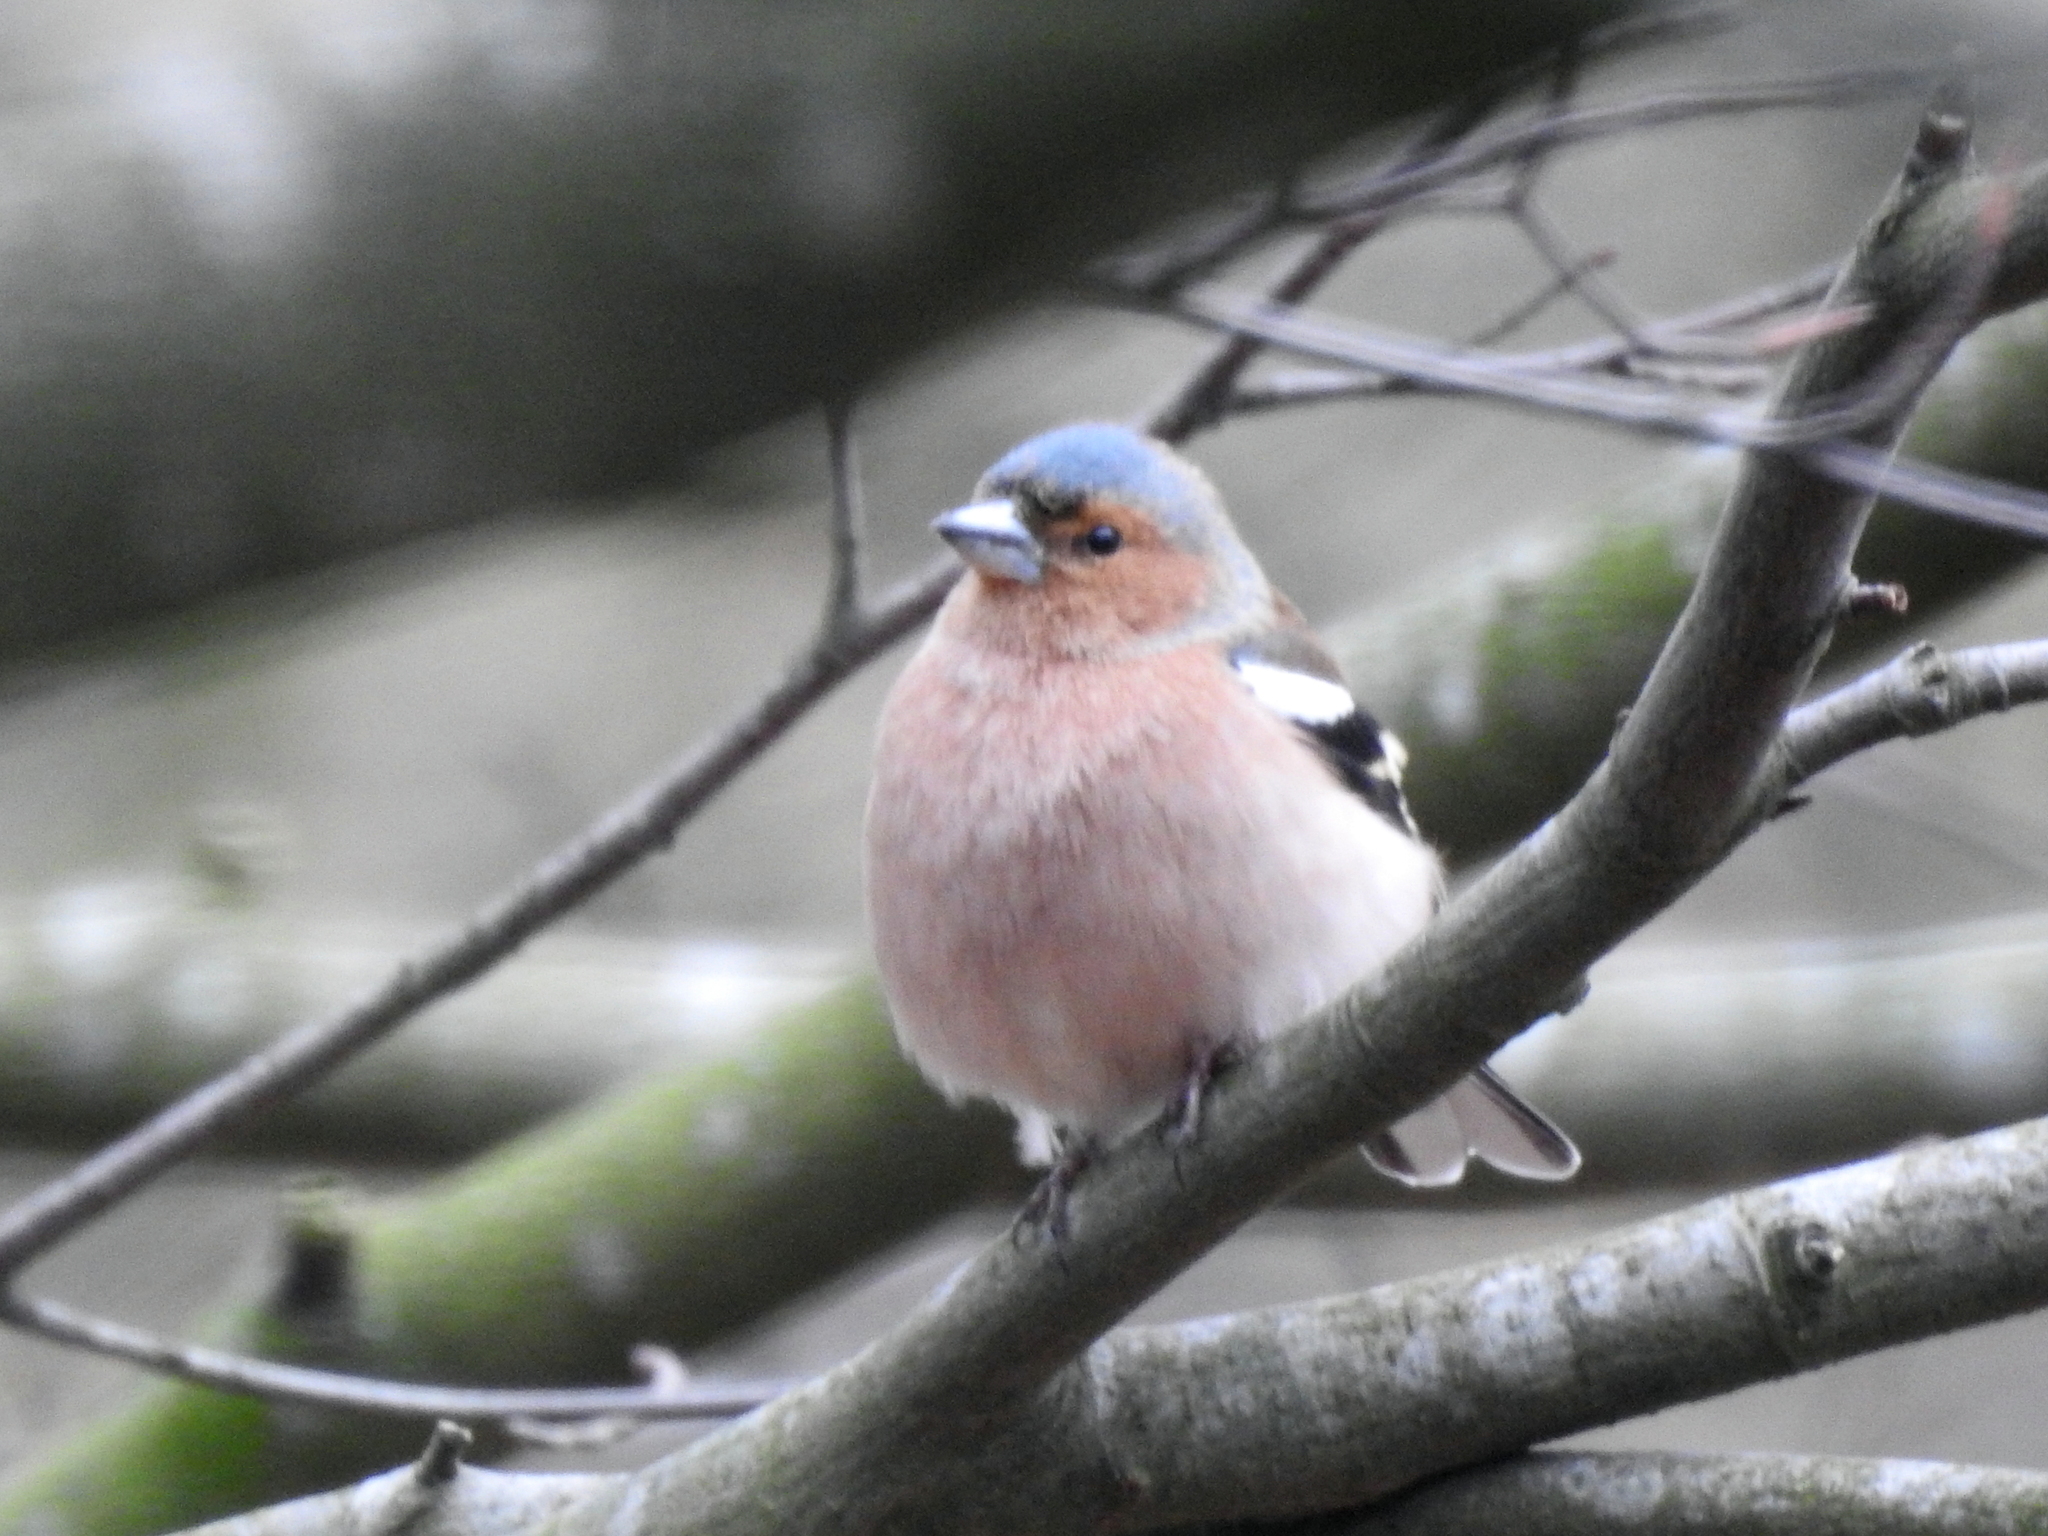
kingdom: Animalia
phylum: Chordata
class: Aves
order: Passeriformes
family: Fringillidae
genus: Fringilla
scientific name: Fringilla coelebs
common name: Common chaffinch
